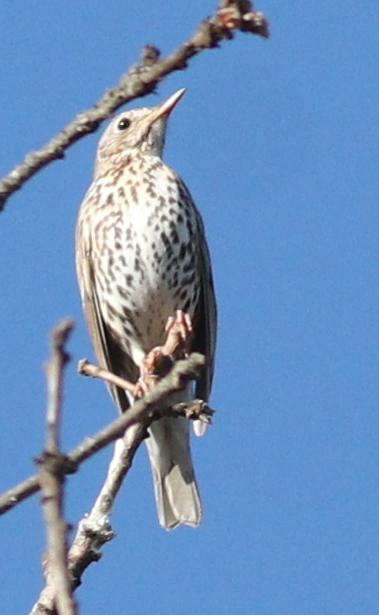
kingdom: Animalia
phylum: Chordata
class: Aves
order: Passeriformes
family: Turdidae
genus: Turdus
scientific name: Turdus philomelos
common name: Song thrush
